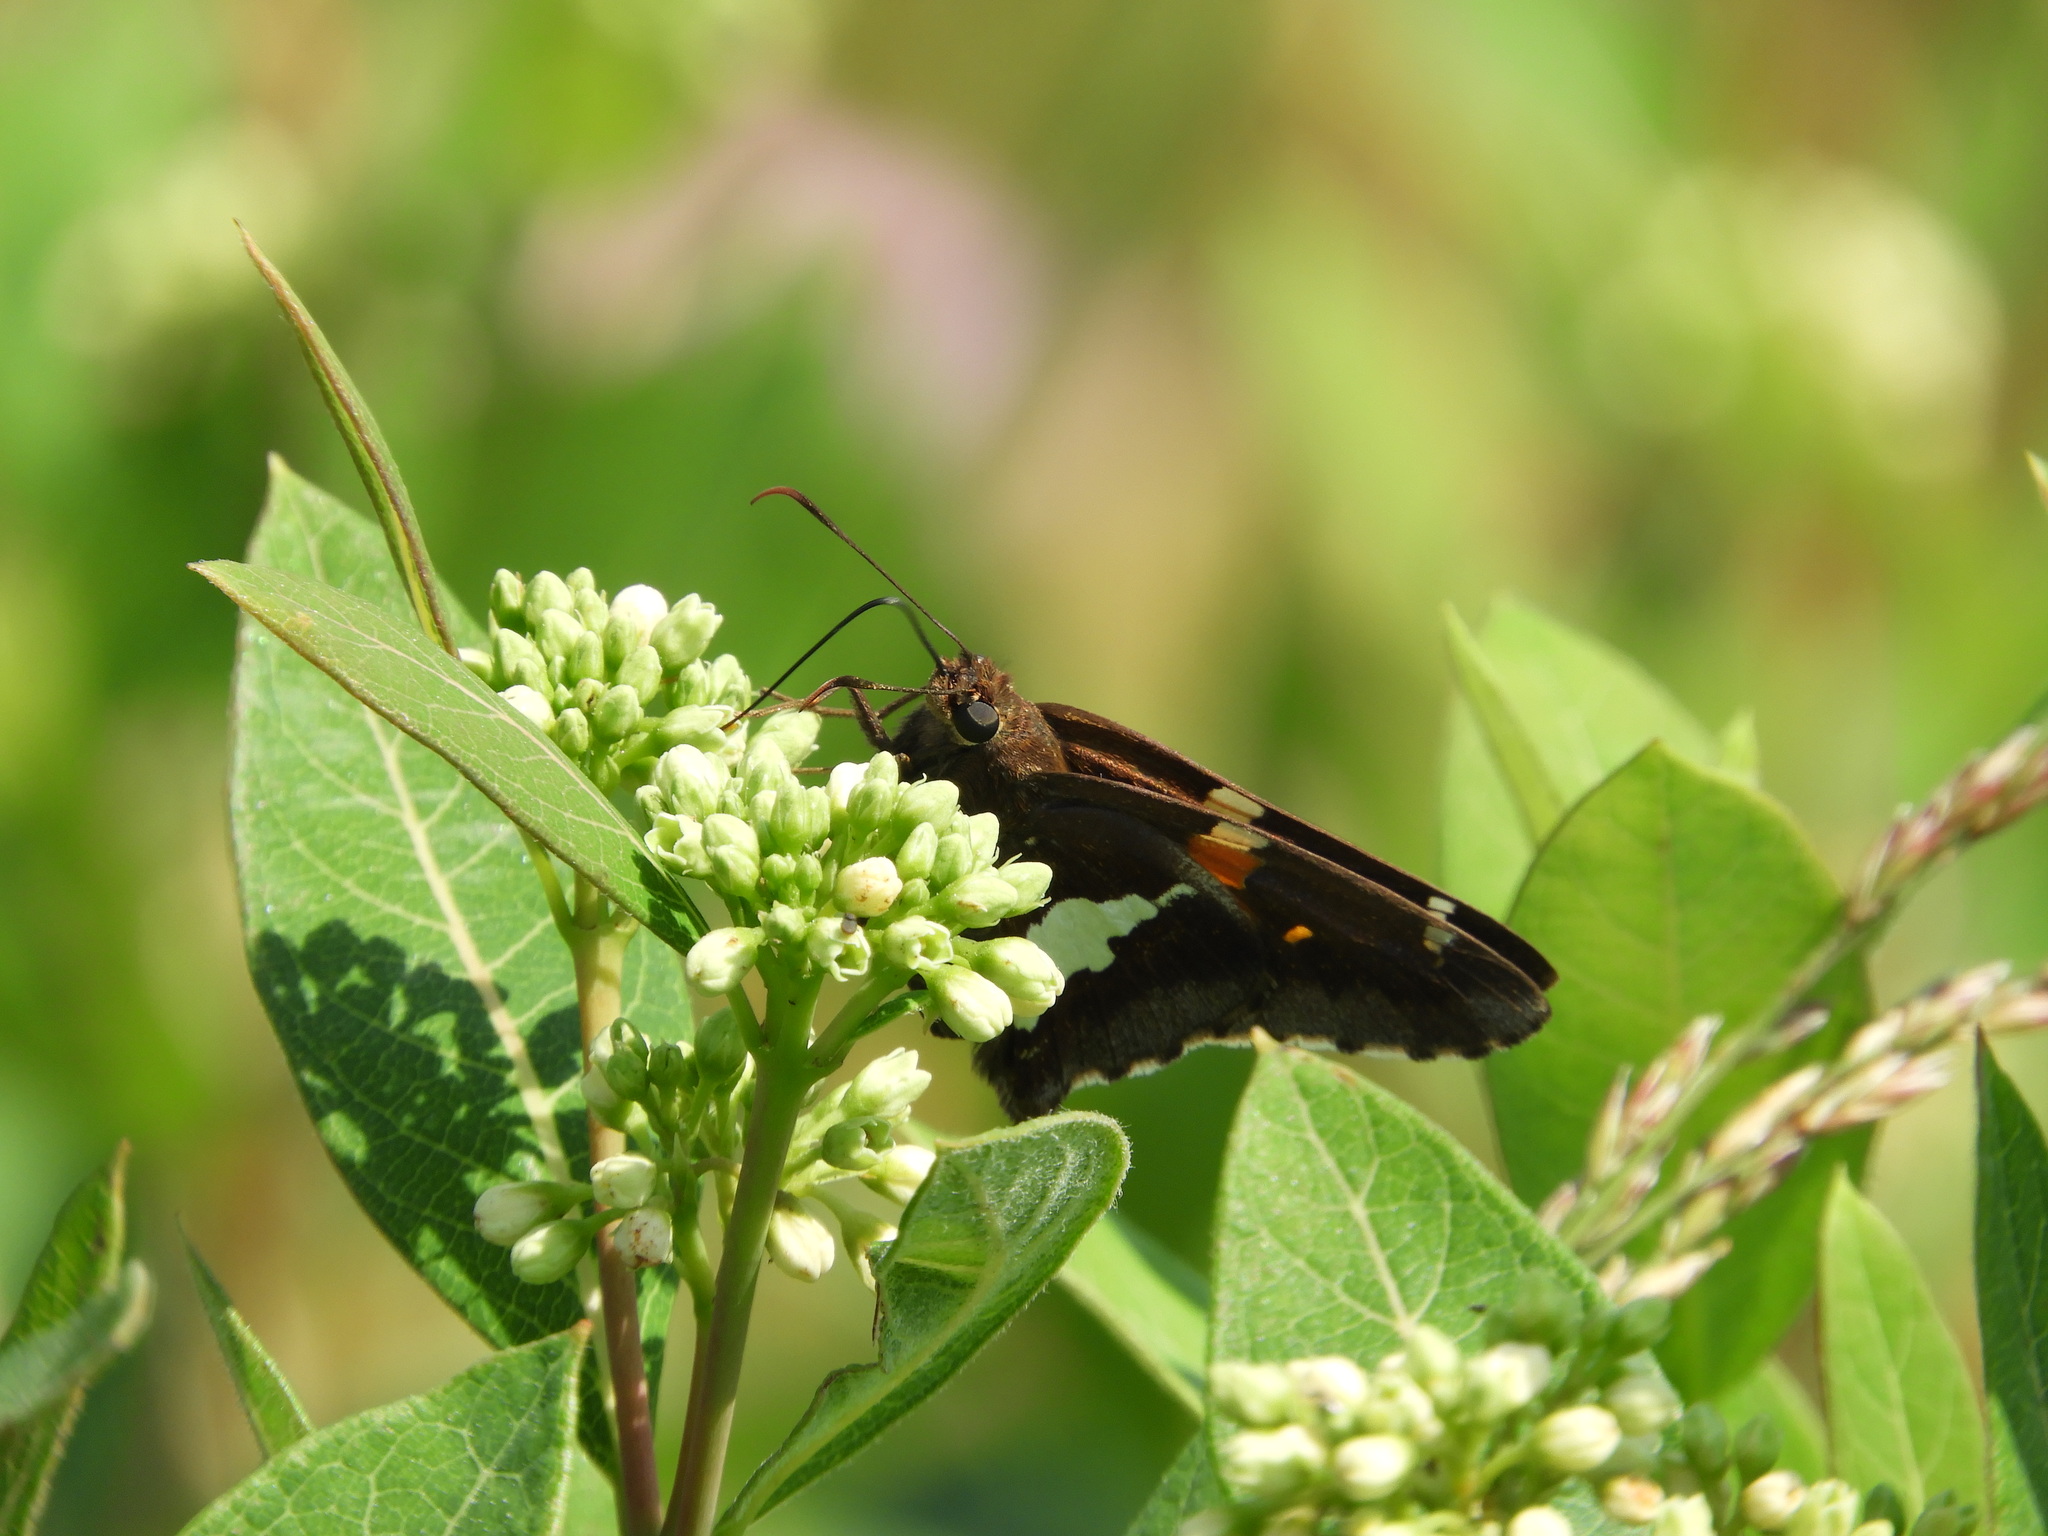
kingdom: Animalia
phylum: Arthropoda
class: Insecta
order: Lepidoptera
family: Hesperiidae
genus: Epargyreus
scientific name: Epargyreus clarus
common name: Silver-spotted skipper
